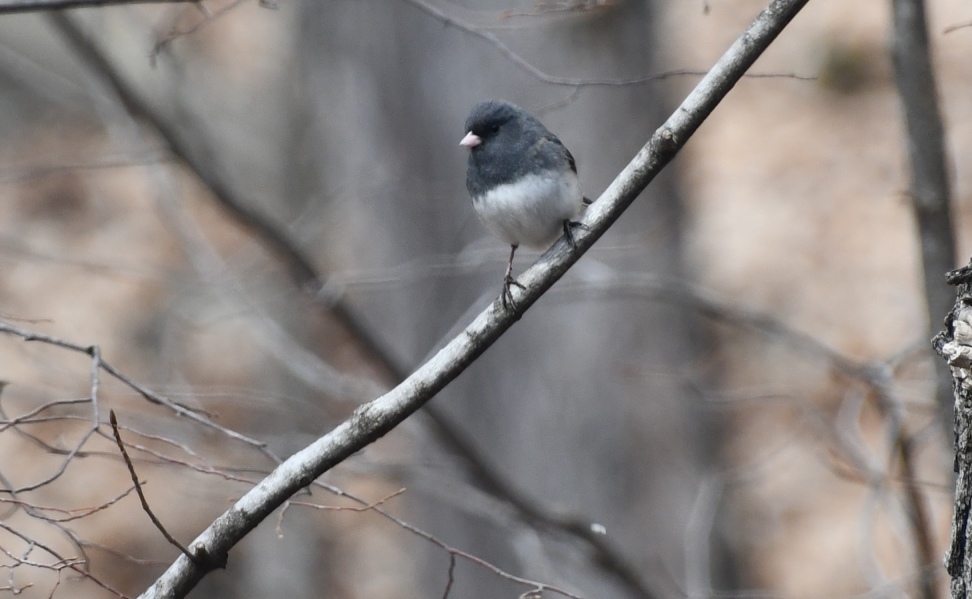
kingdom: Animalia
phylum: Chordata
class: Aves
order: Passeriformes
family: Passerellidae
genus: Junco
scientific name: Junco hyemalis
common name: Dark-eyed junco
